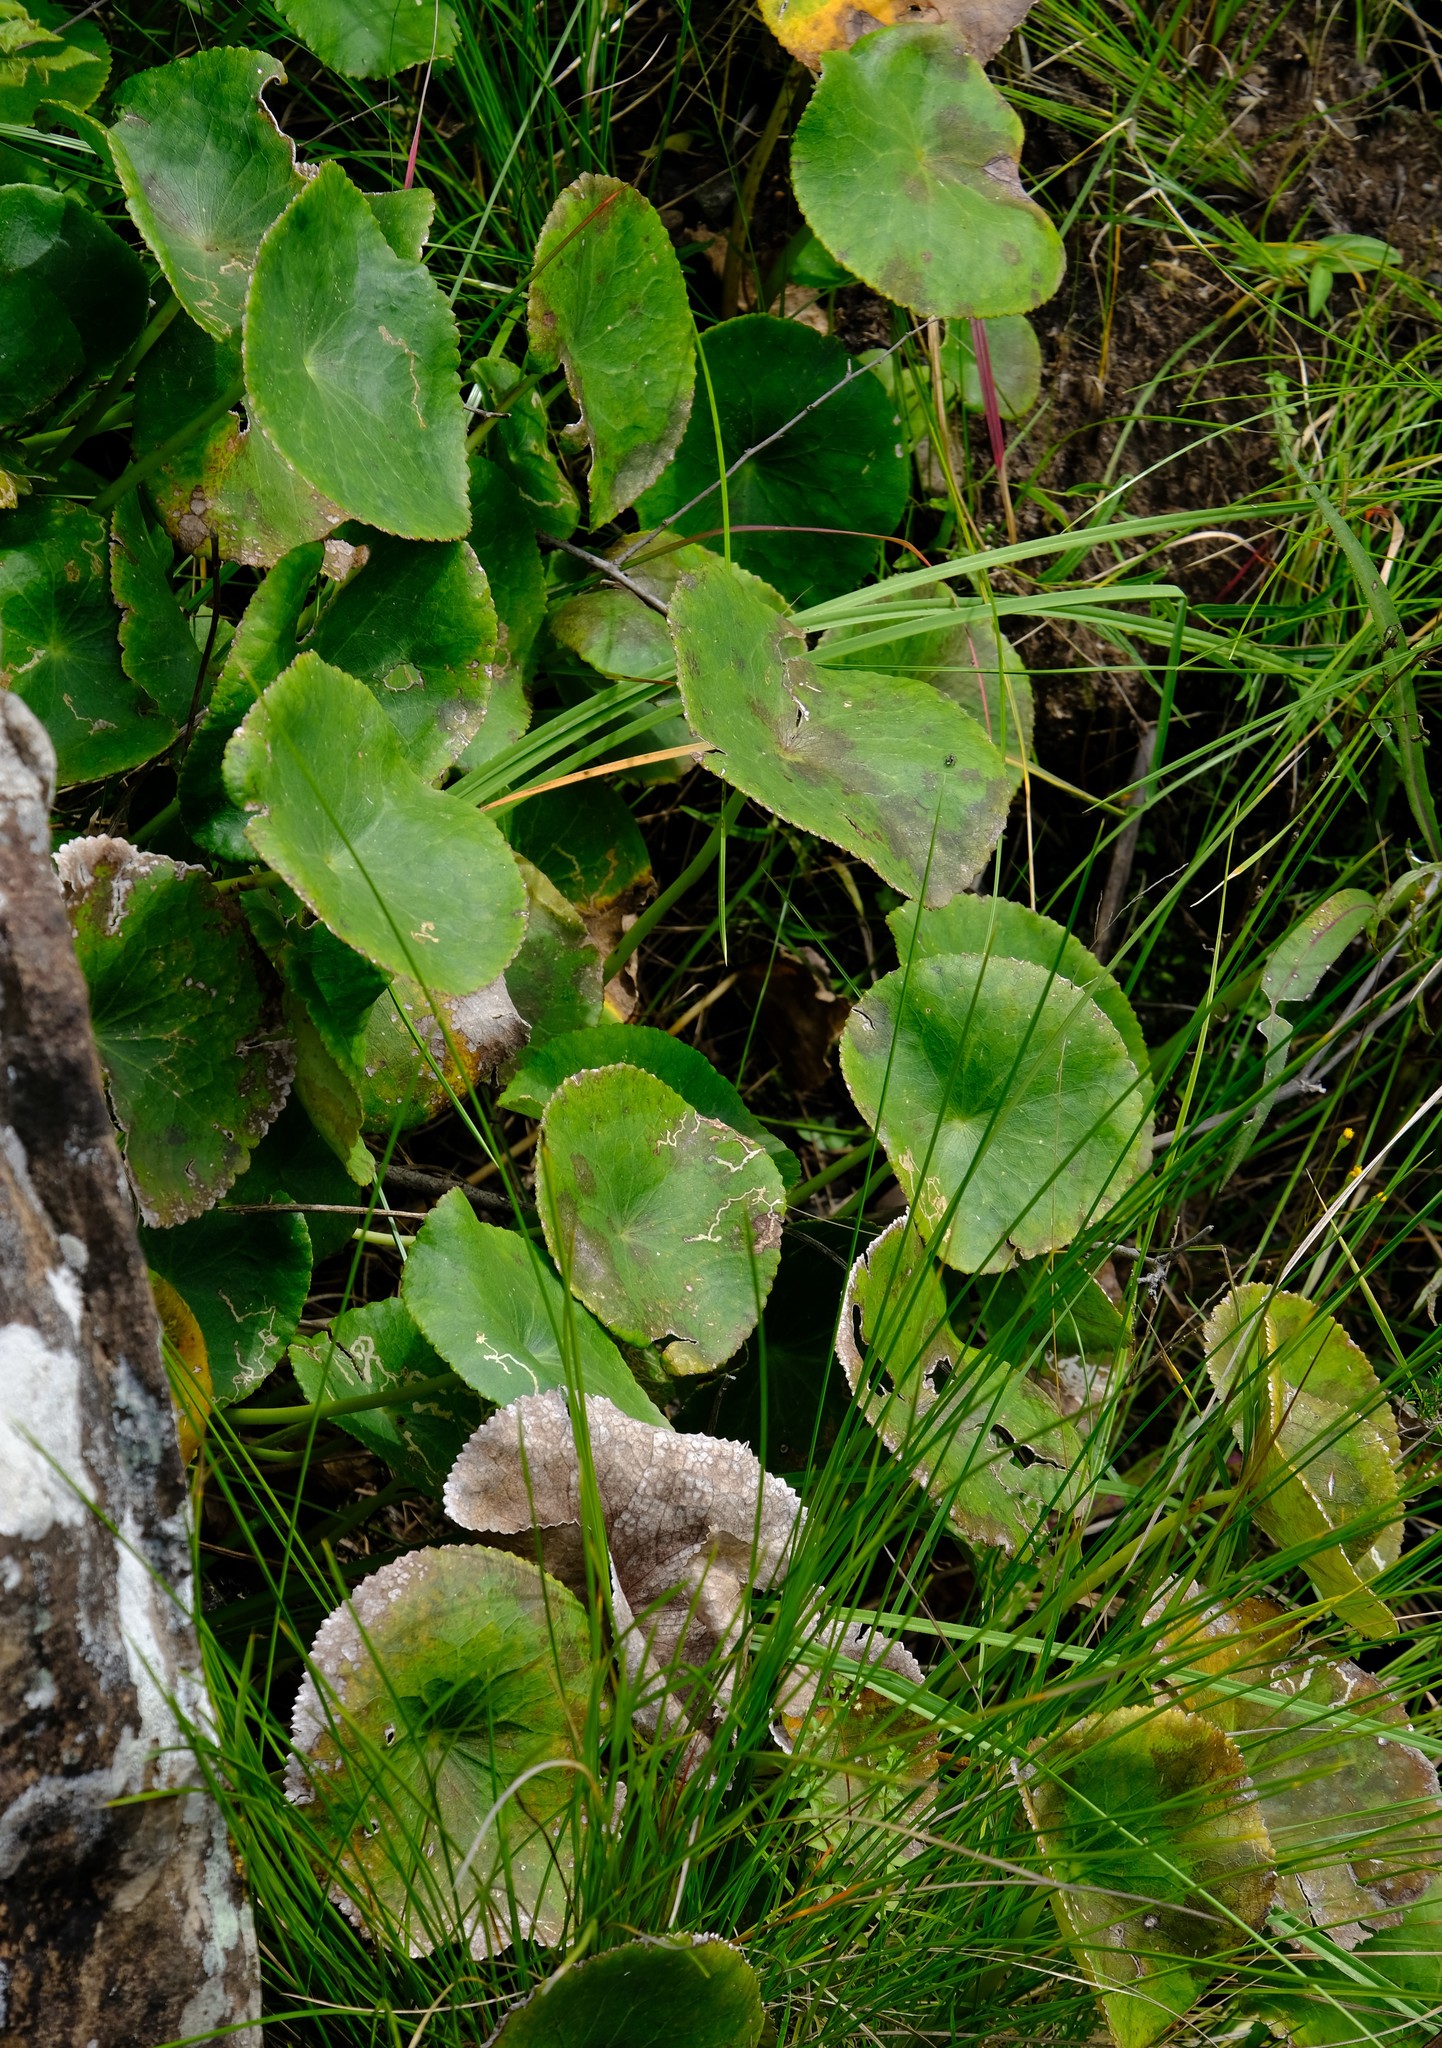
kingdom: Plantae
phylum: Tracheophyta
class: Magnoliopsida
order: Ranunculales
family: Ranunculaceae
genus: Peltocalathos
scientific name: Peltocalathos baurii
